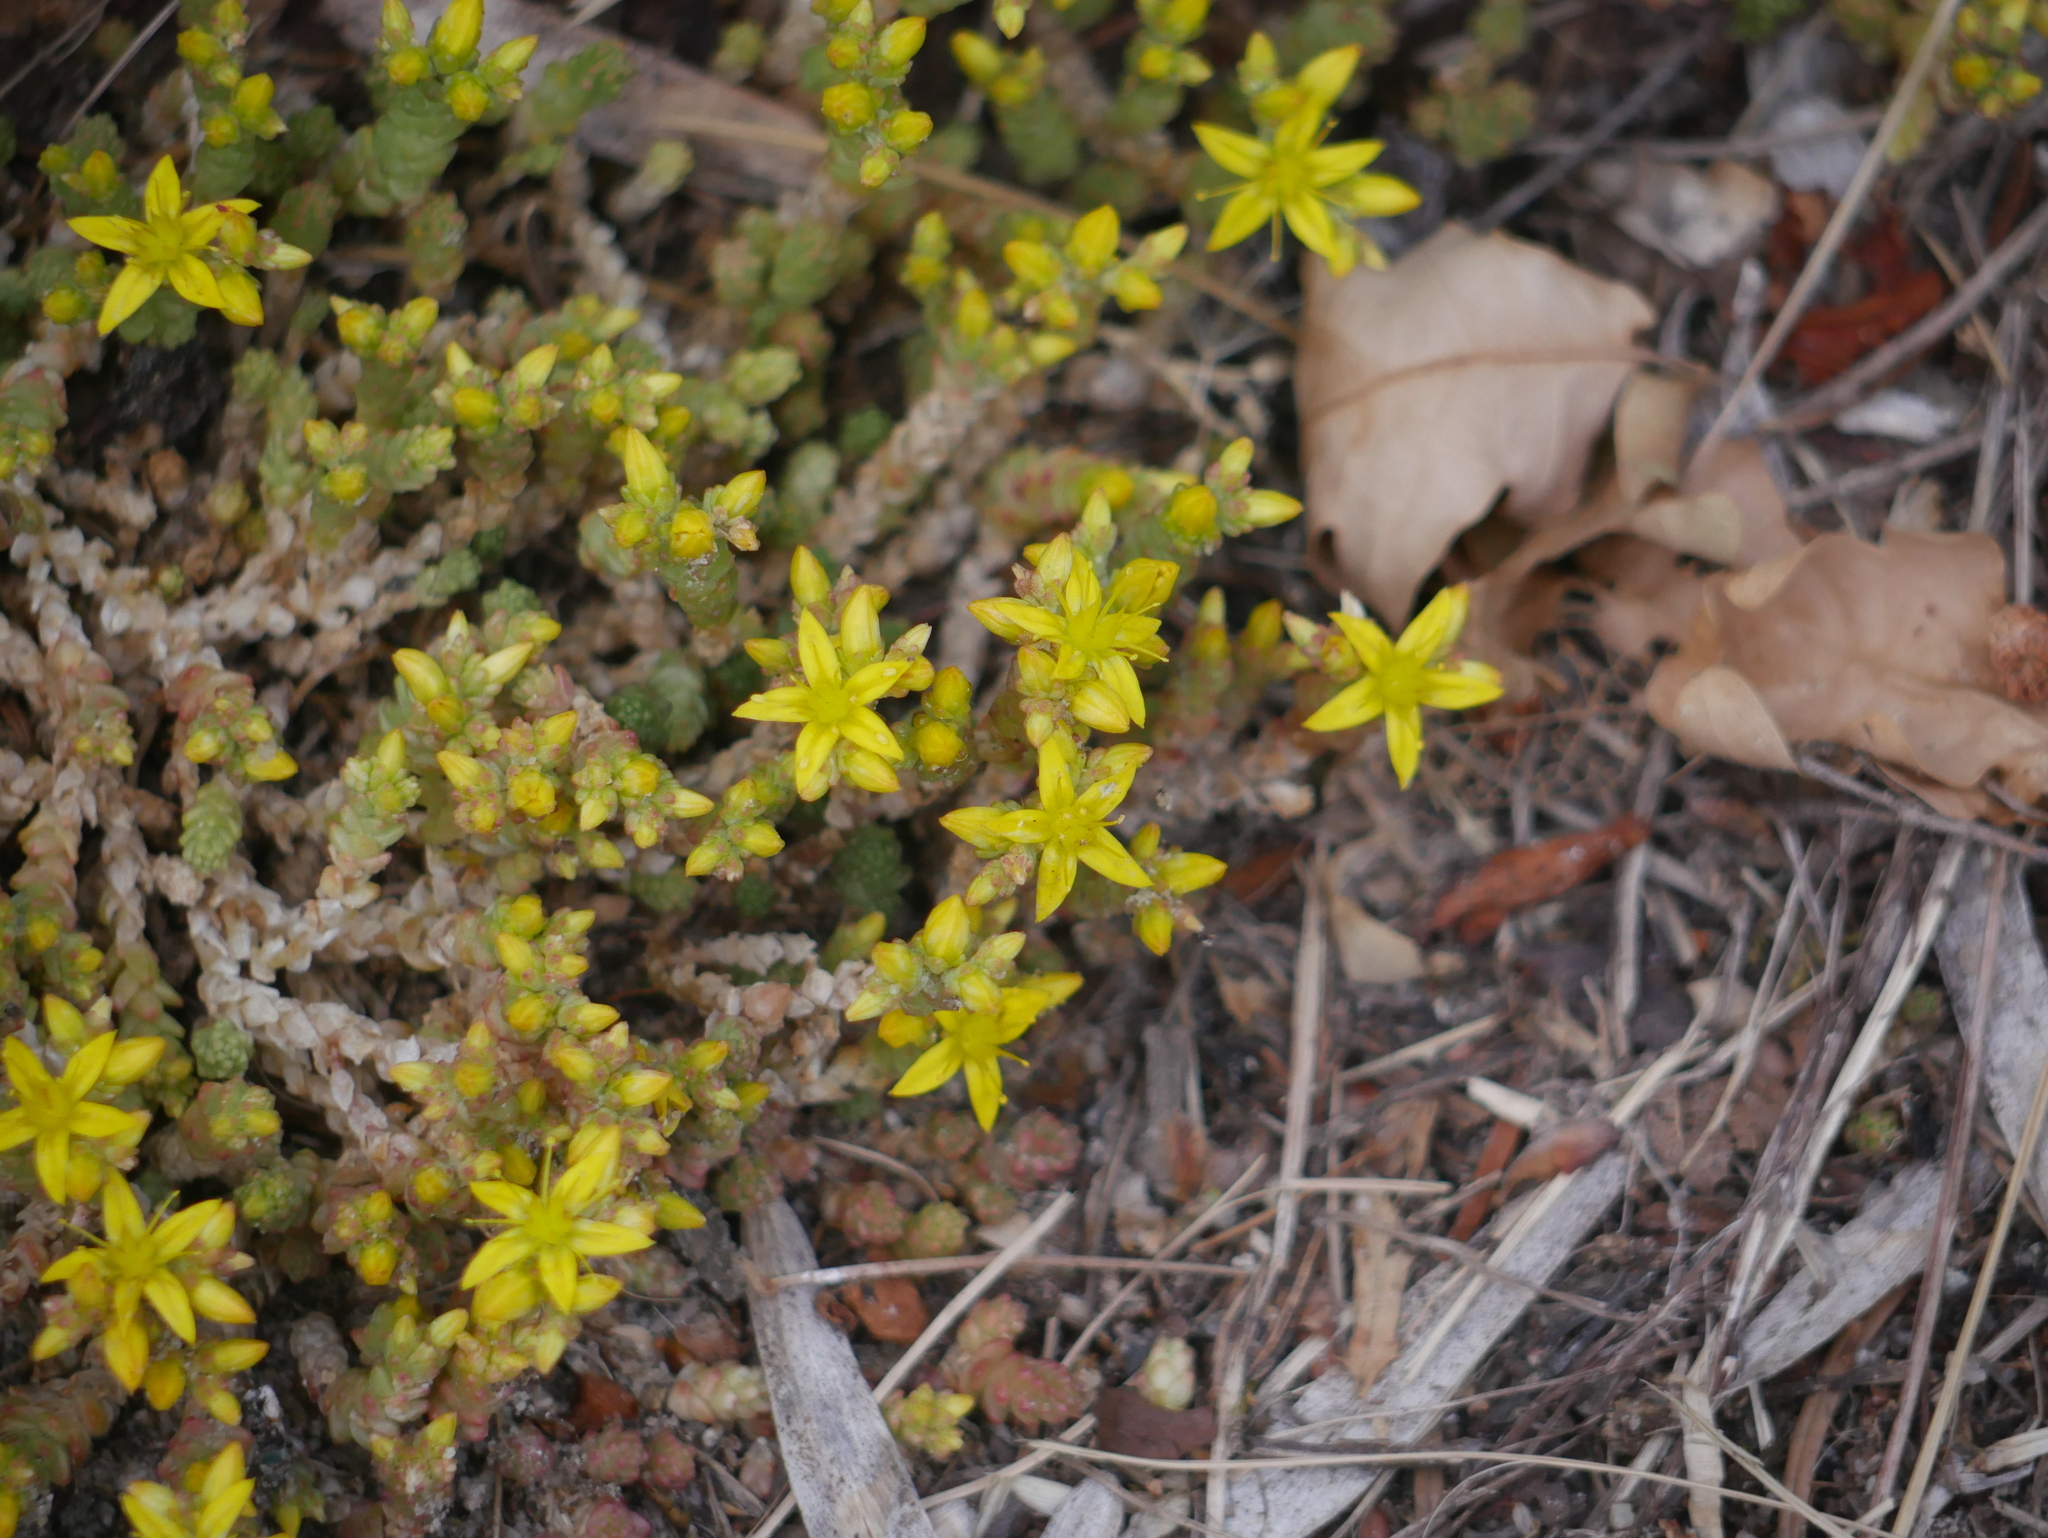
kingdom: Plantae
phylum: Tracheophyta
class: Magnoliopsida
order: Saxifragales
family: Crassulaceae
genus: Sedum
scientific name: Sedum acre
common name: Biting stonecrop
